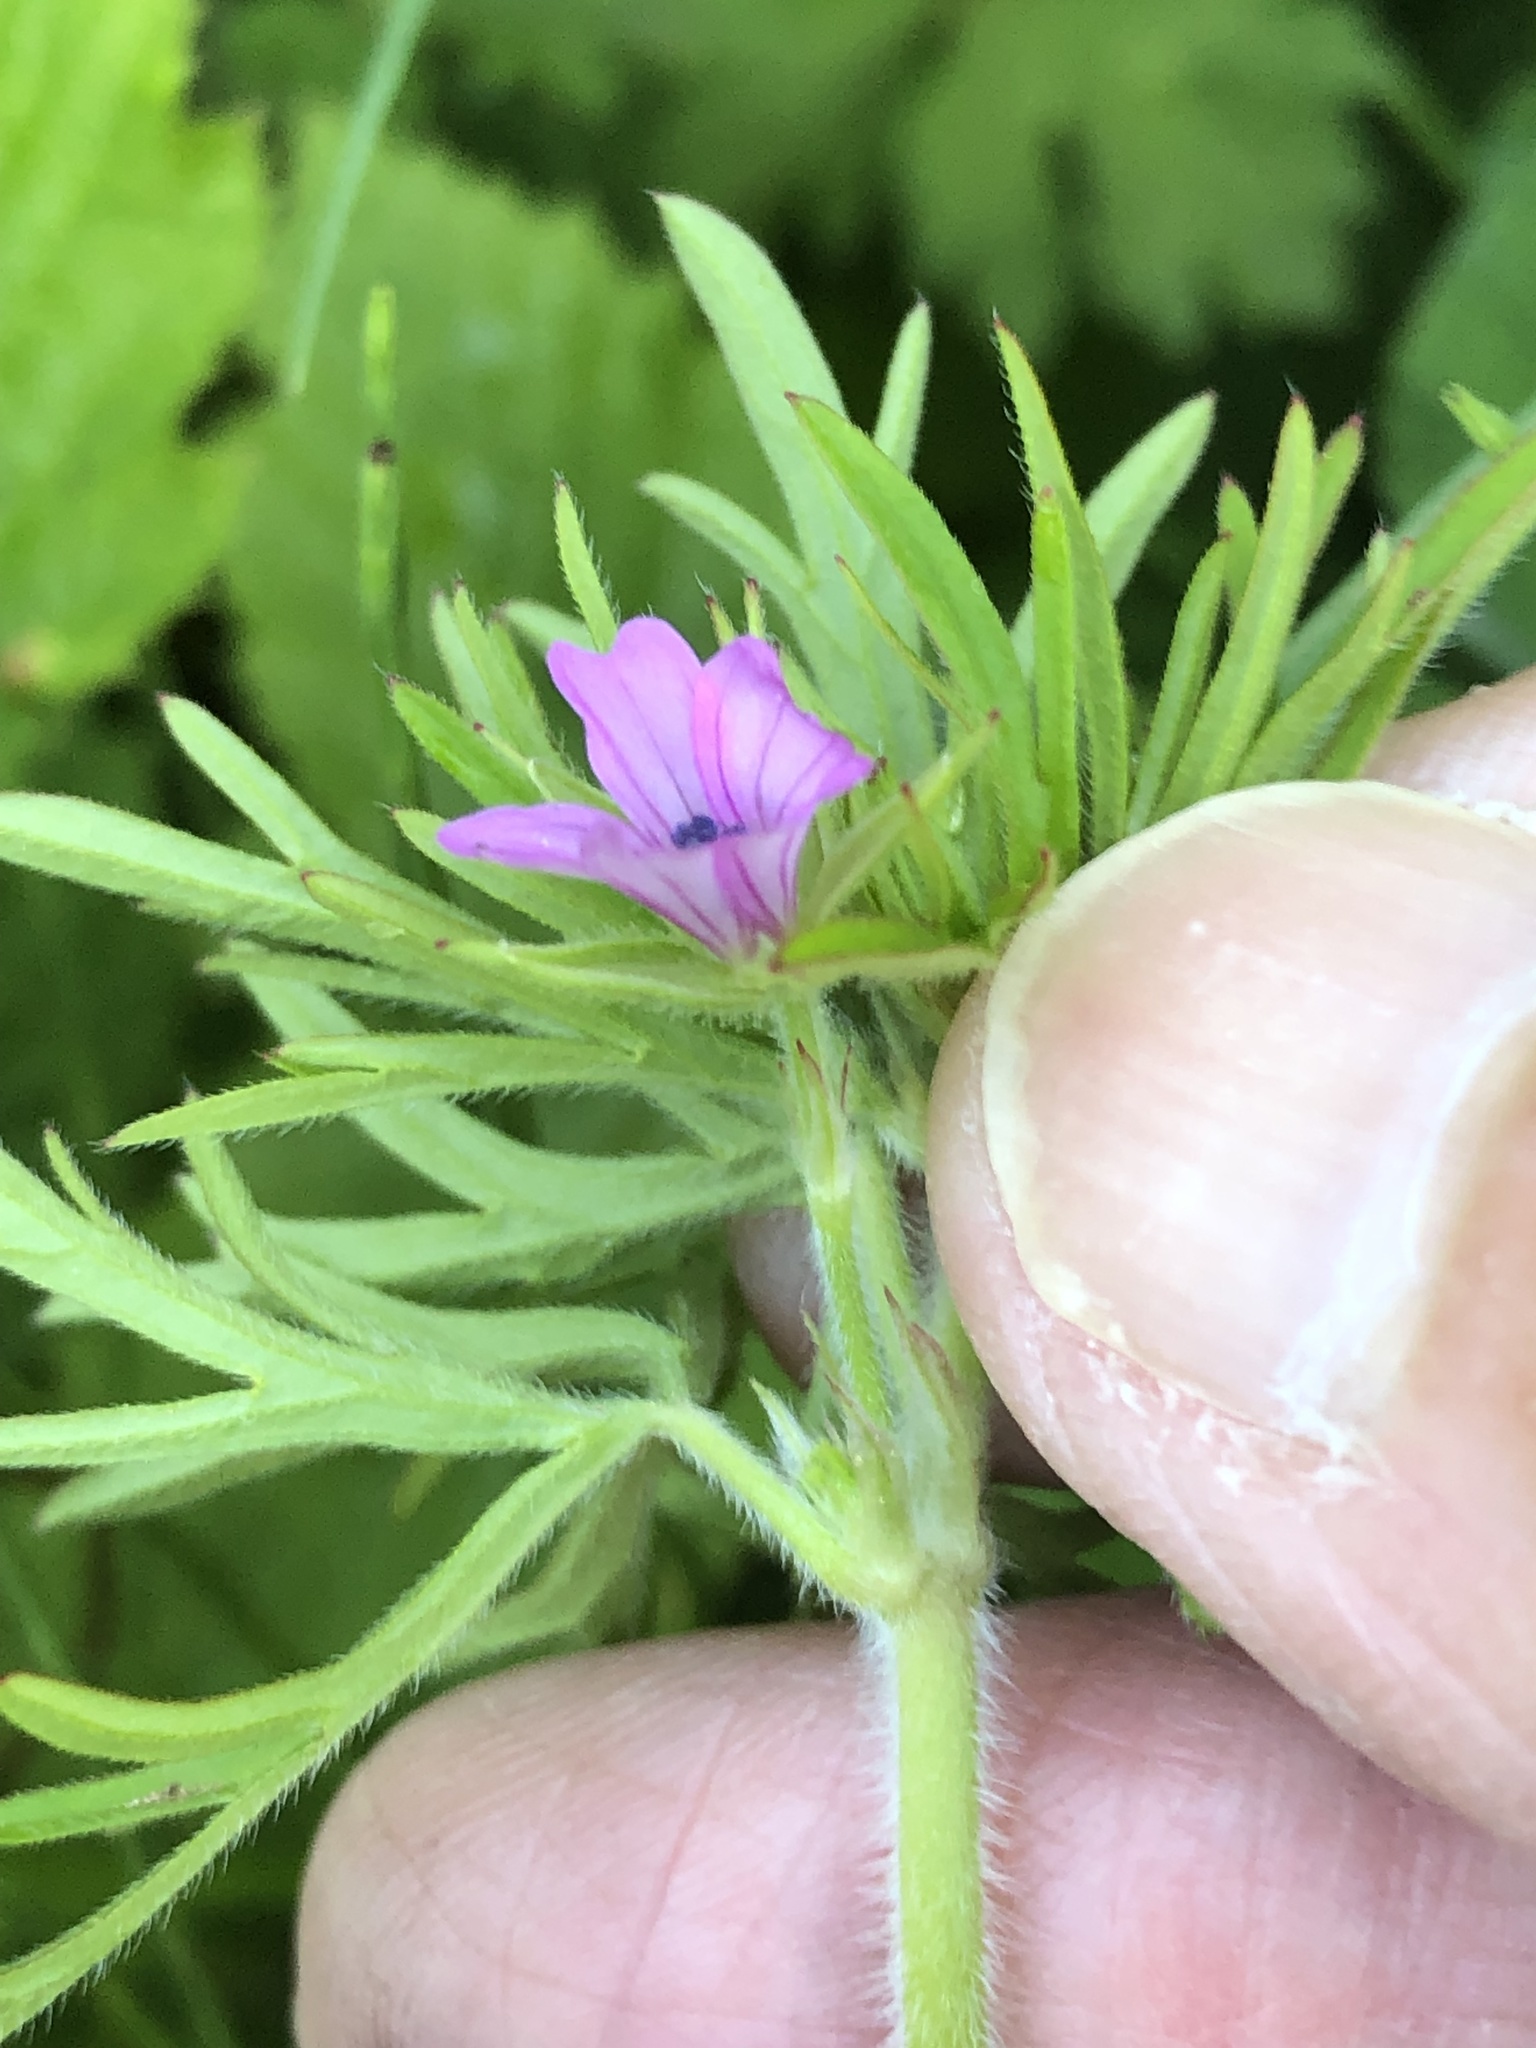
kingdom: Plantae
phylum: Tracheophyta
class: Magnoliopsida
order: Geraniales
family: Geraniaceae
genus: Geranium
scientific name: Geranium dissectum
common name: Cut-leaved crane's-bill
